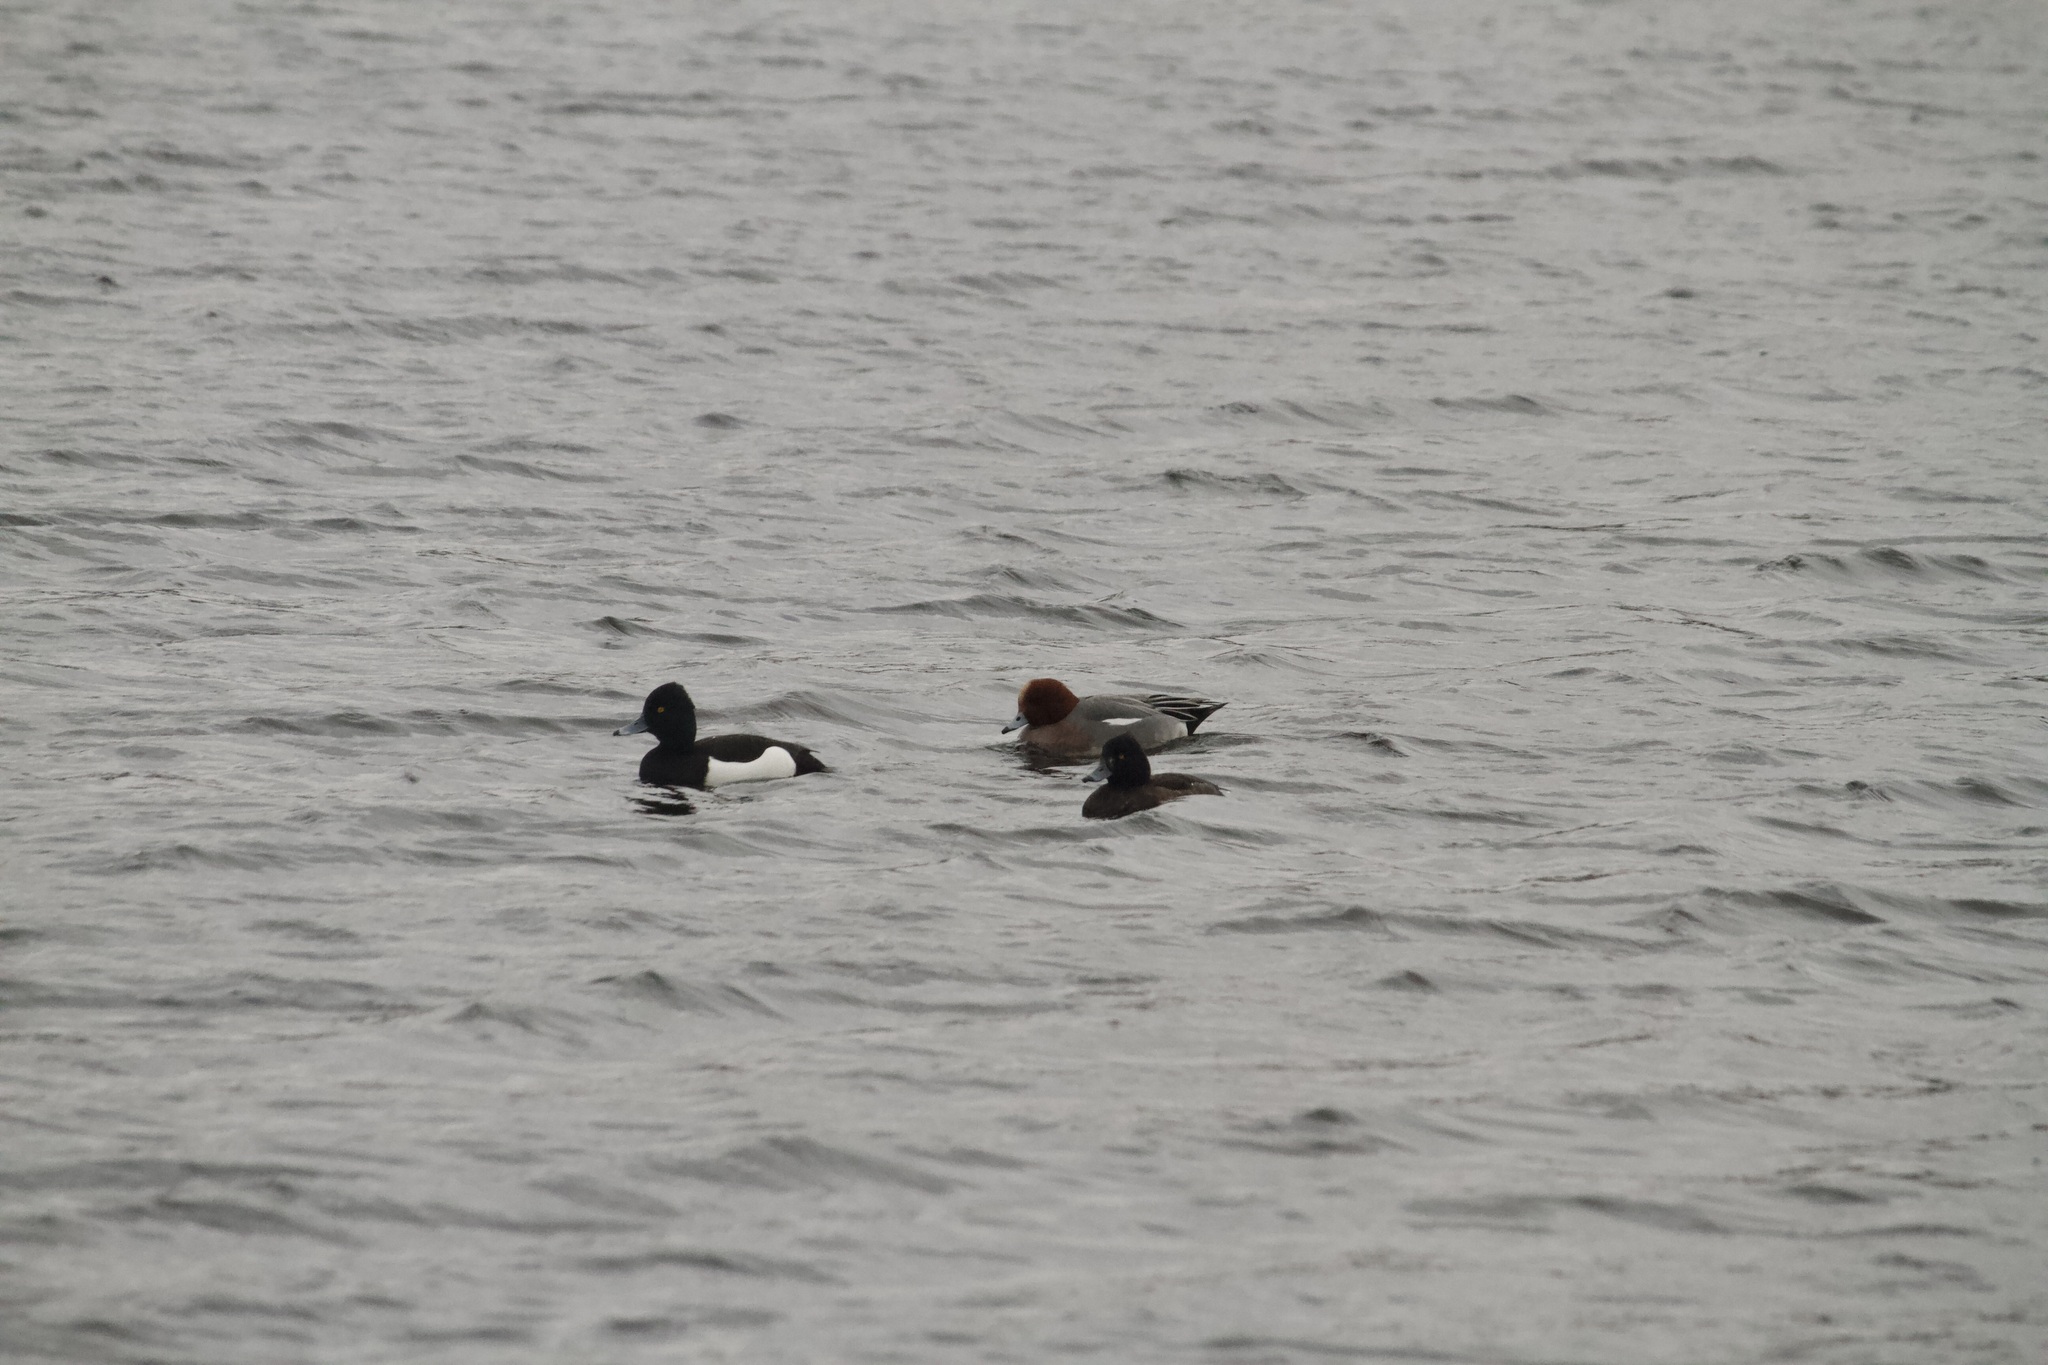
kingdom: Animalia
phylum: Chordata
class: Aves
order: Anseriformes
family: Anatidae
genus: Aythya
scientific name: Aythya fuligula
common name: Tufted duck
